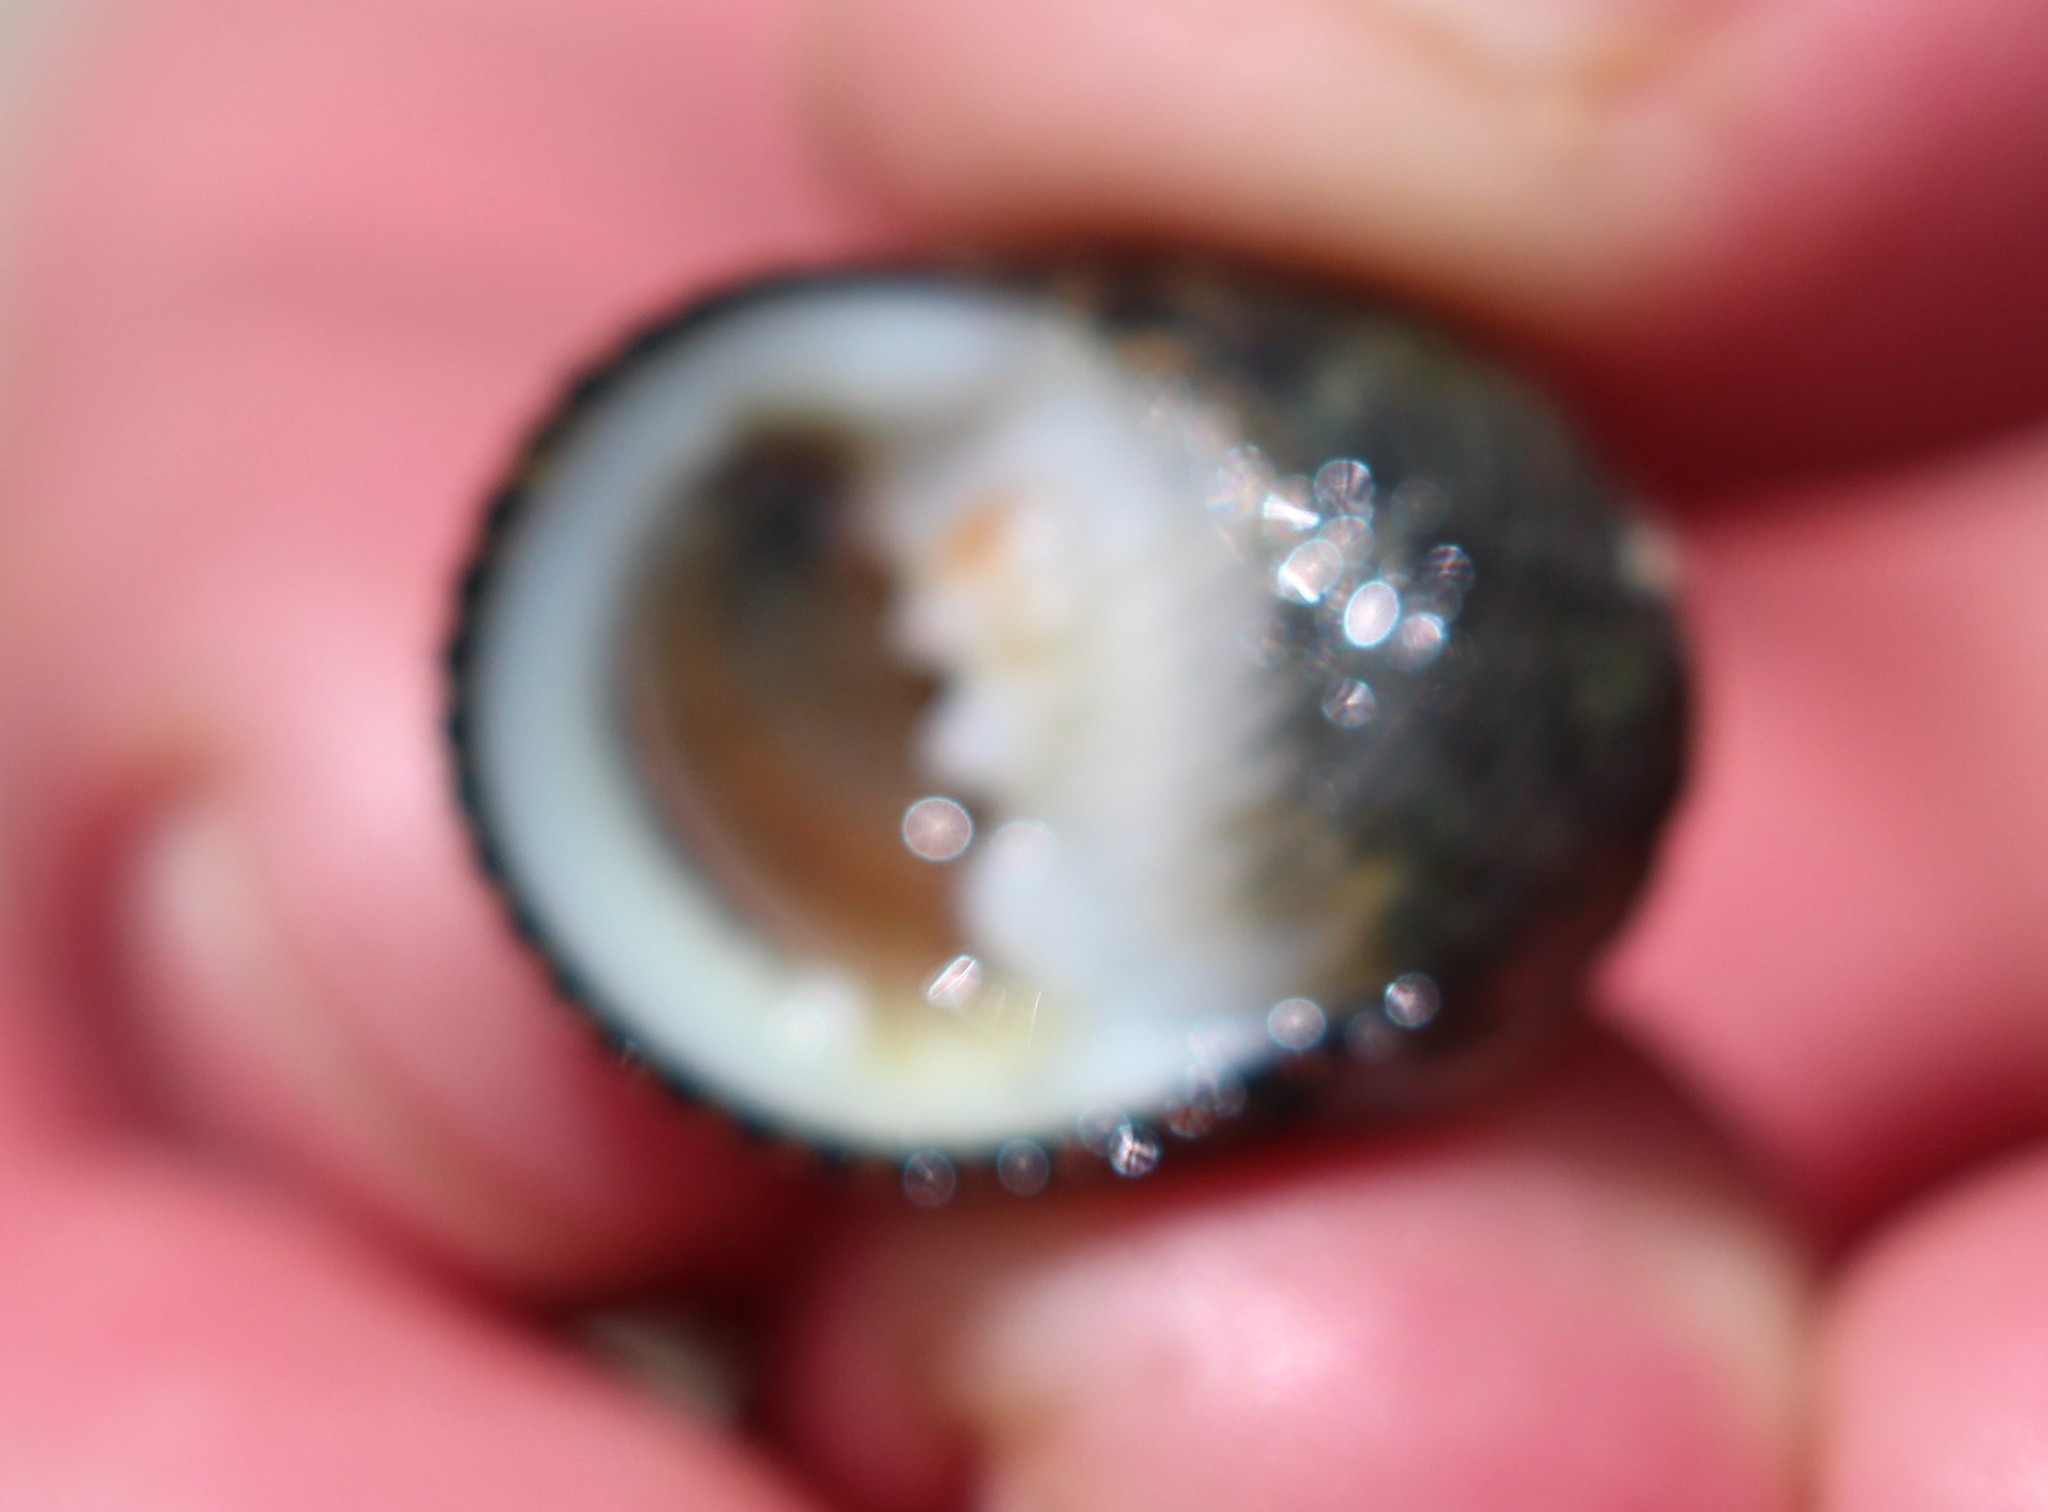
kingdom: Animalia
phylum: Mollusca
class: Gastropoda
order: Cycloneritida
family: Neritidae
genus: Nerita
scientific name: Nerita scabricosta
